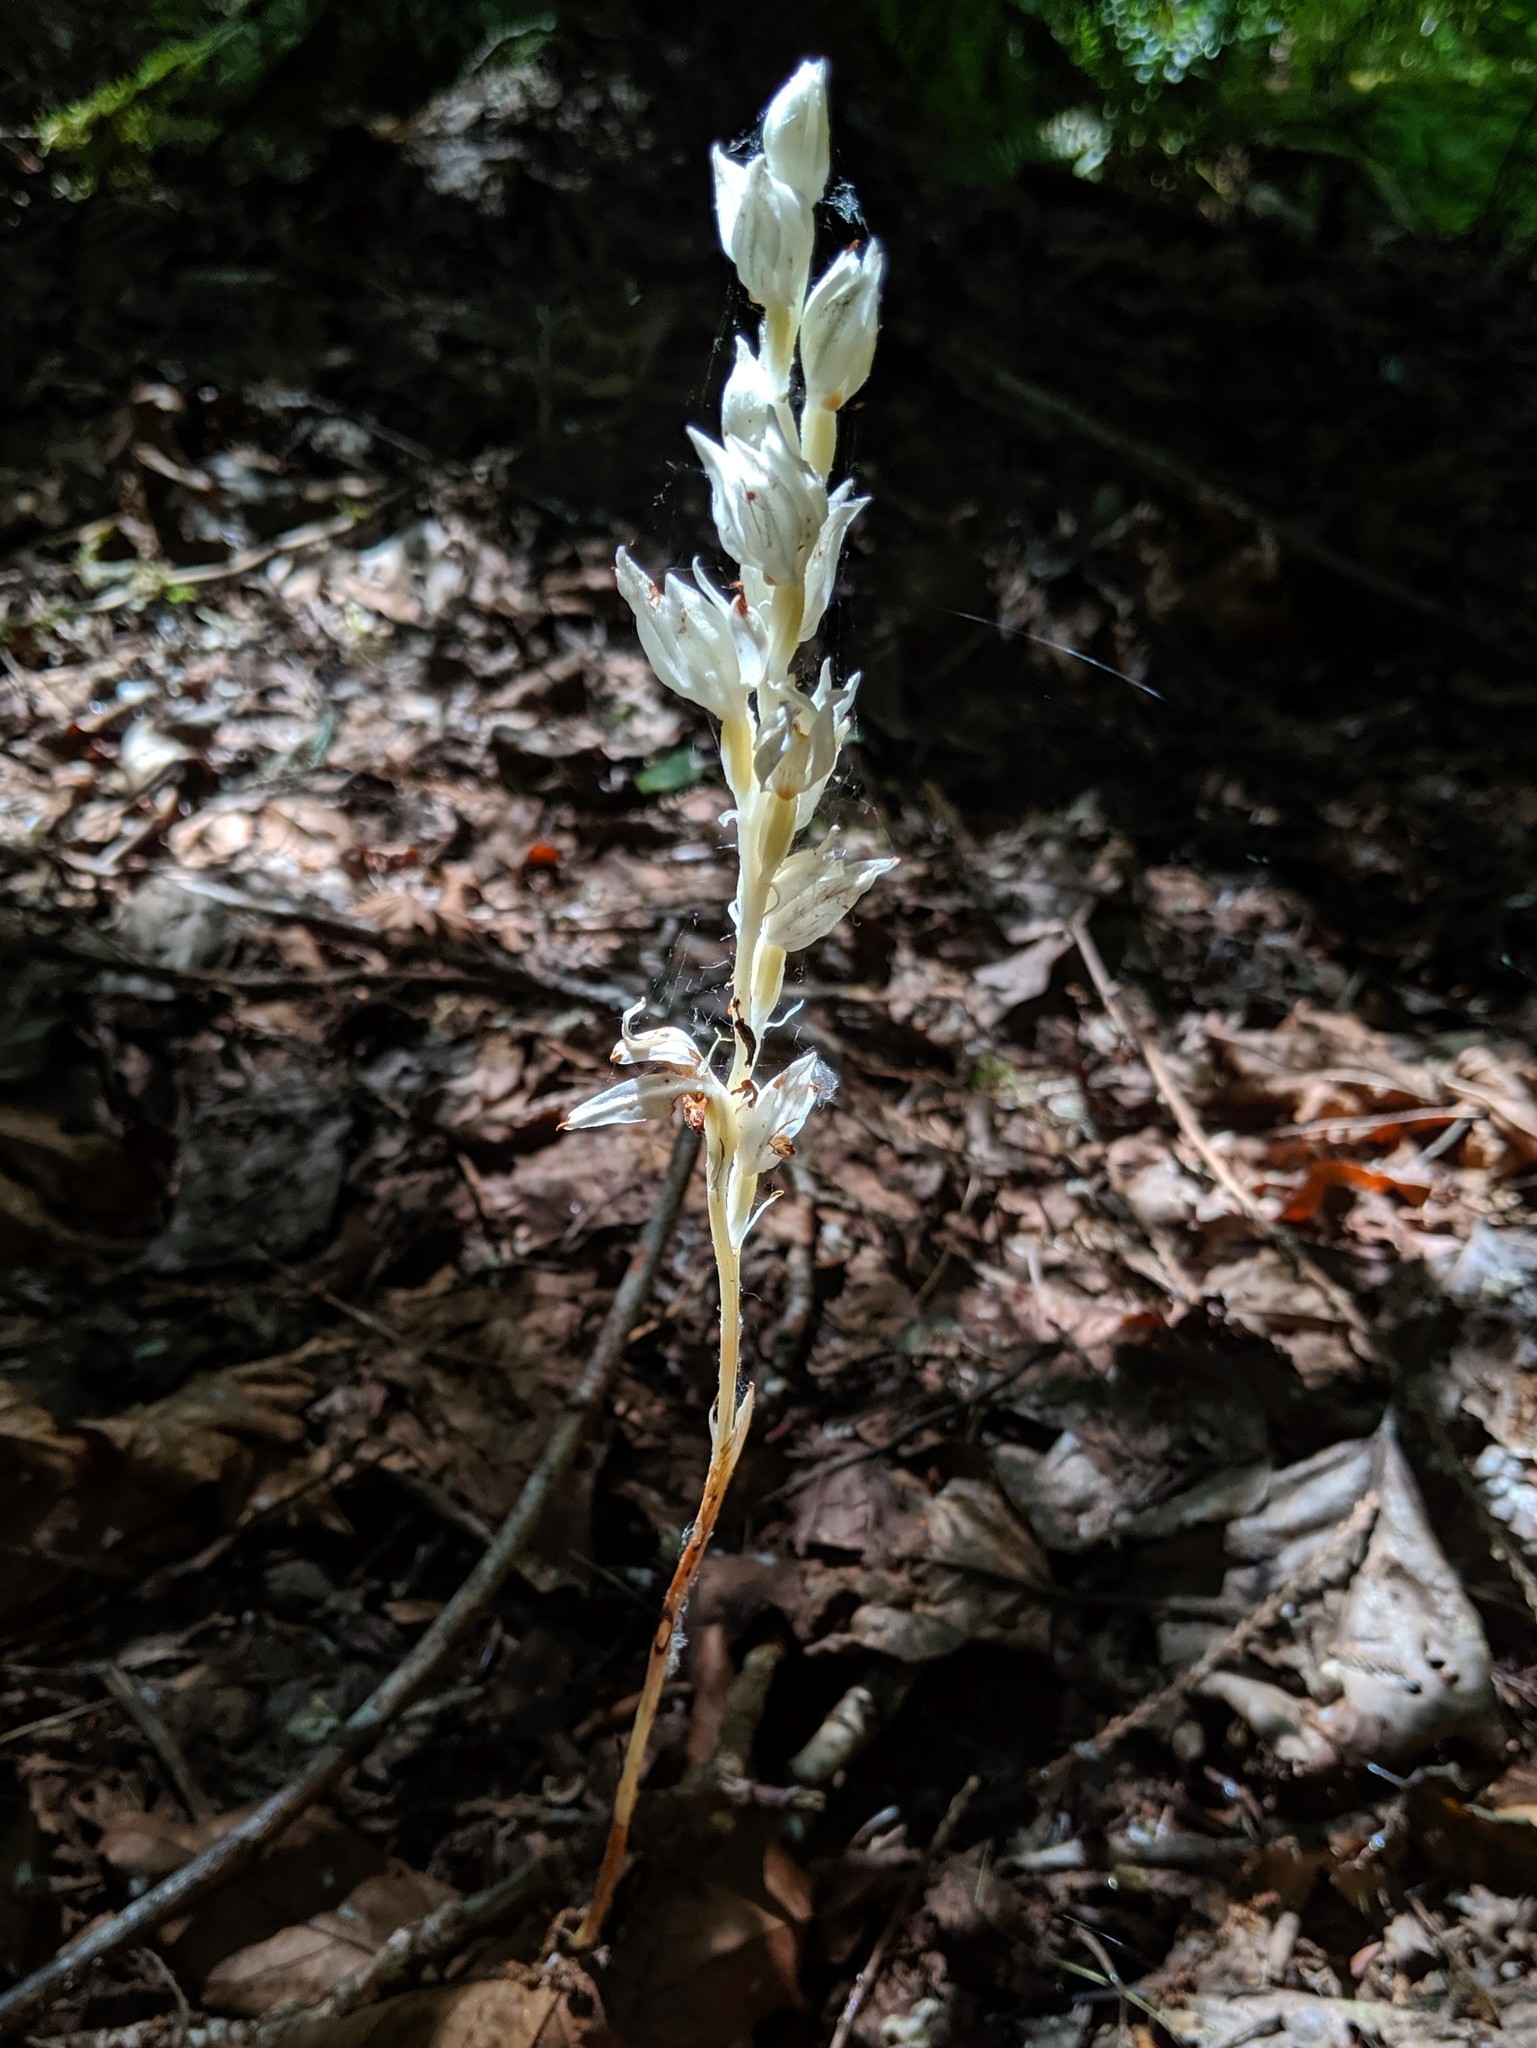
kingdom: Plantae
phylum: Tracheophyta
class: Liliopsida
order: Asparagales
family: Orchidaceae
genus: Cephalanthera
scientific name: Cephalanthera austiniae
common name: Phantom orchid
